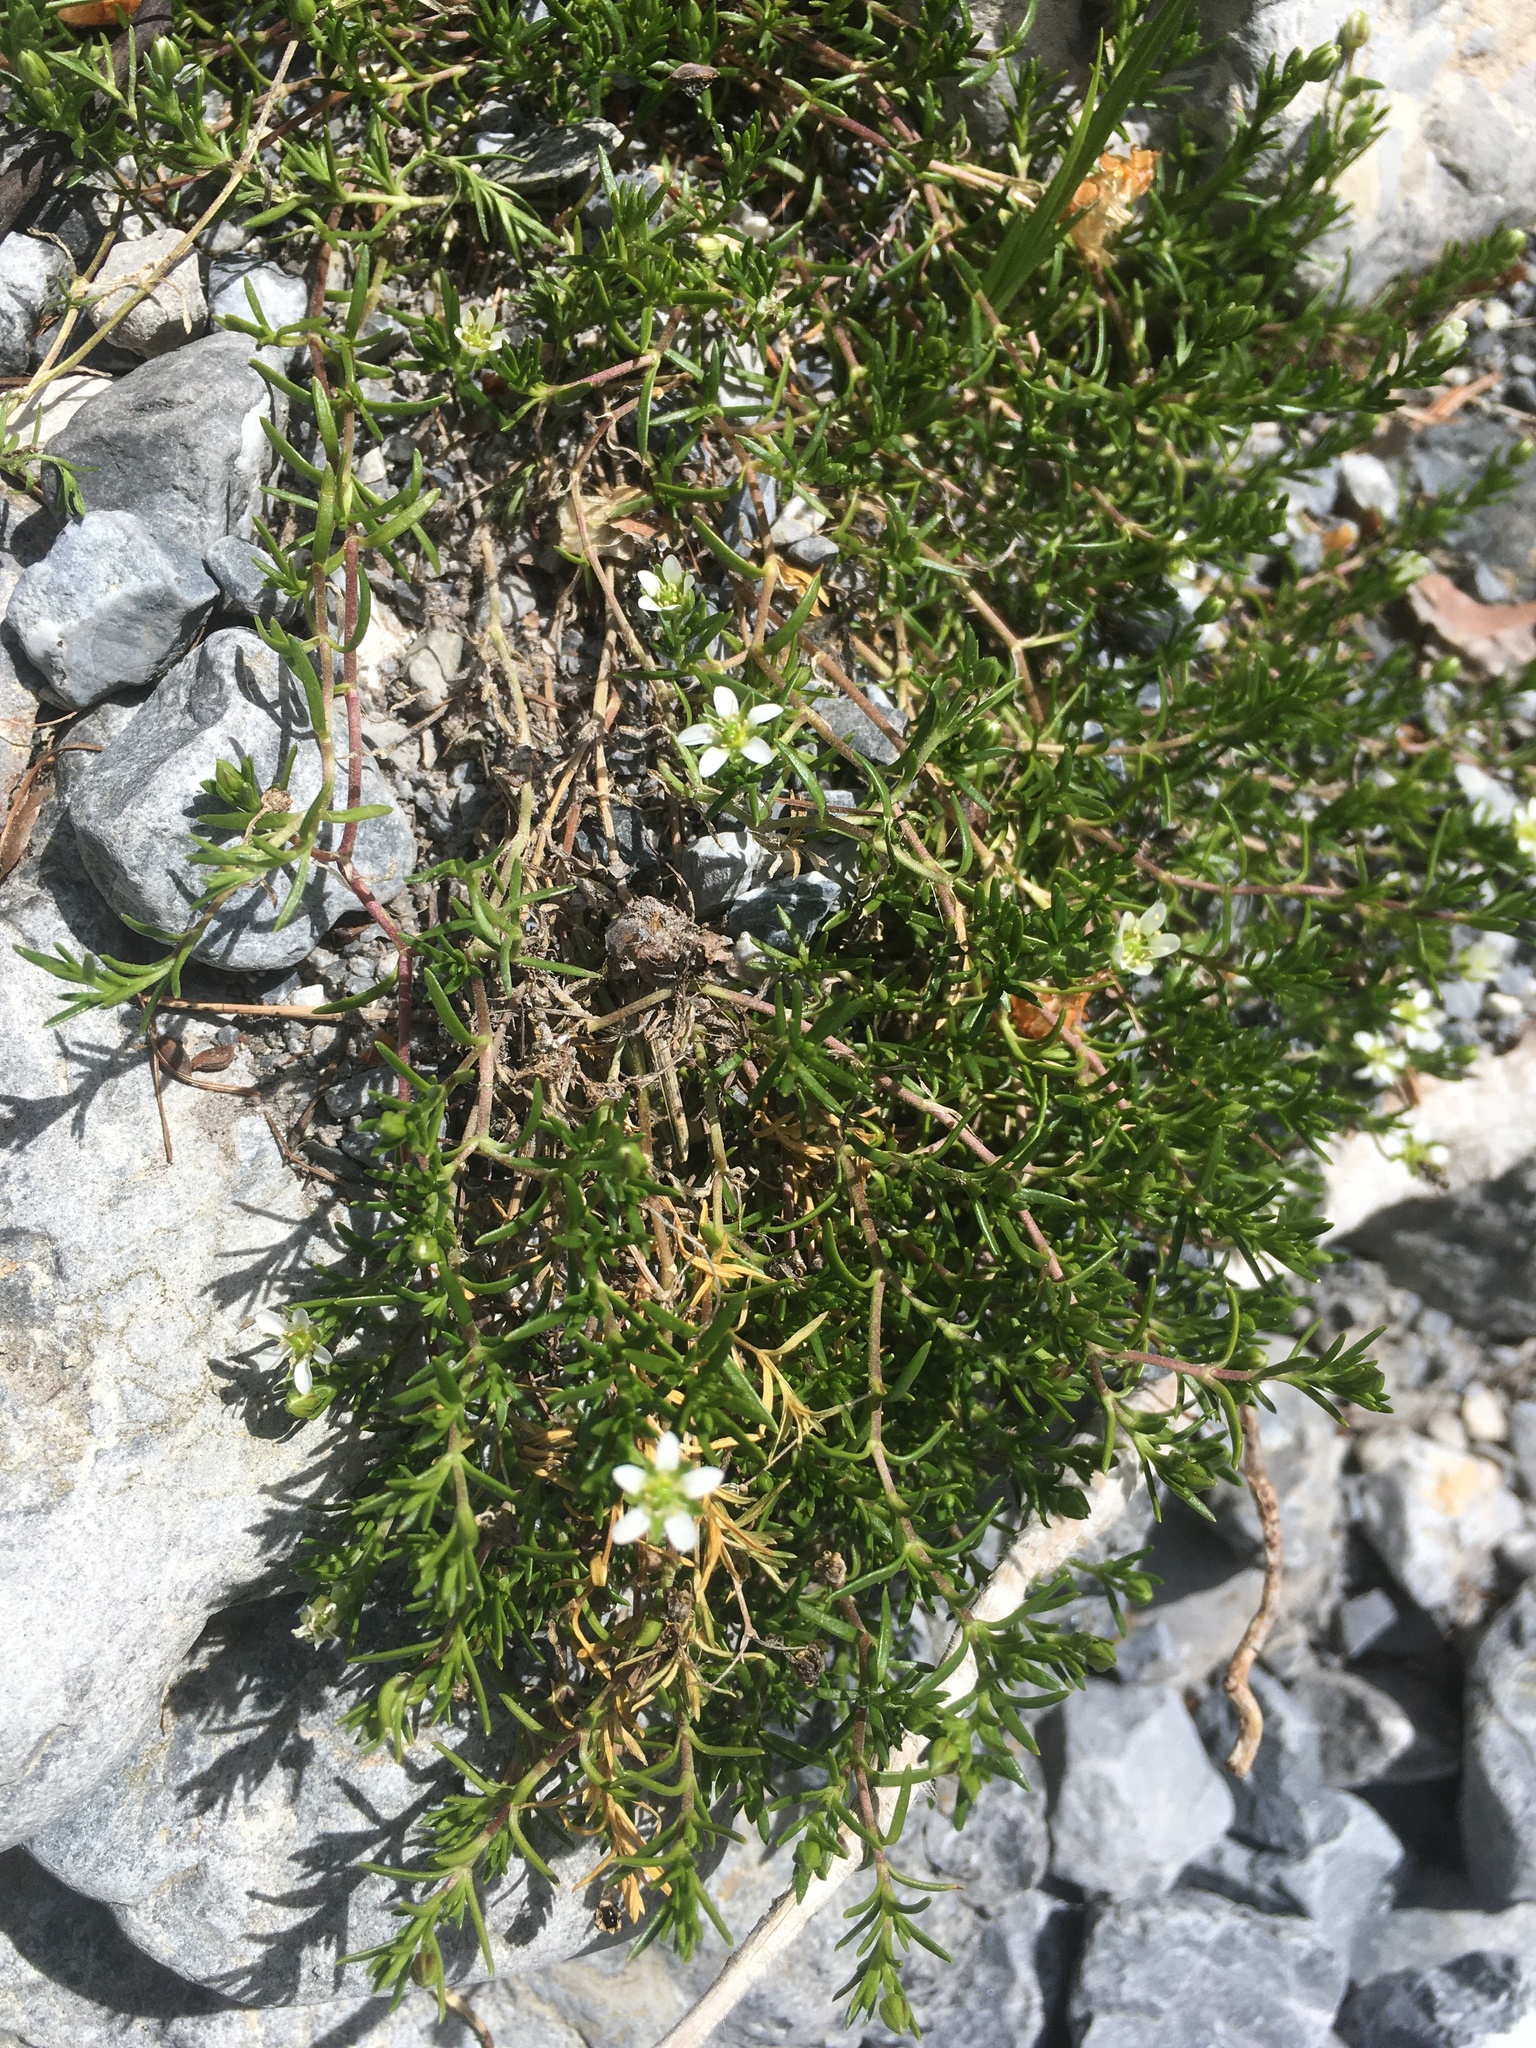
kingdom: Plantae
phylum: Tracheophyta
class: Magnoliopsida
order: Caryophyllales
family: Caryophyllaceae
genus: Moehringia
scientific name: Moehringia ciliata
